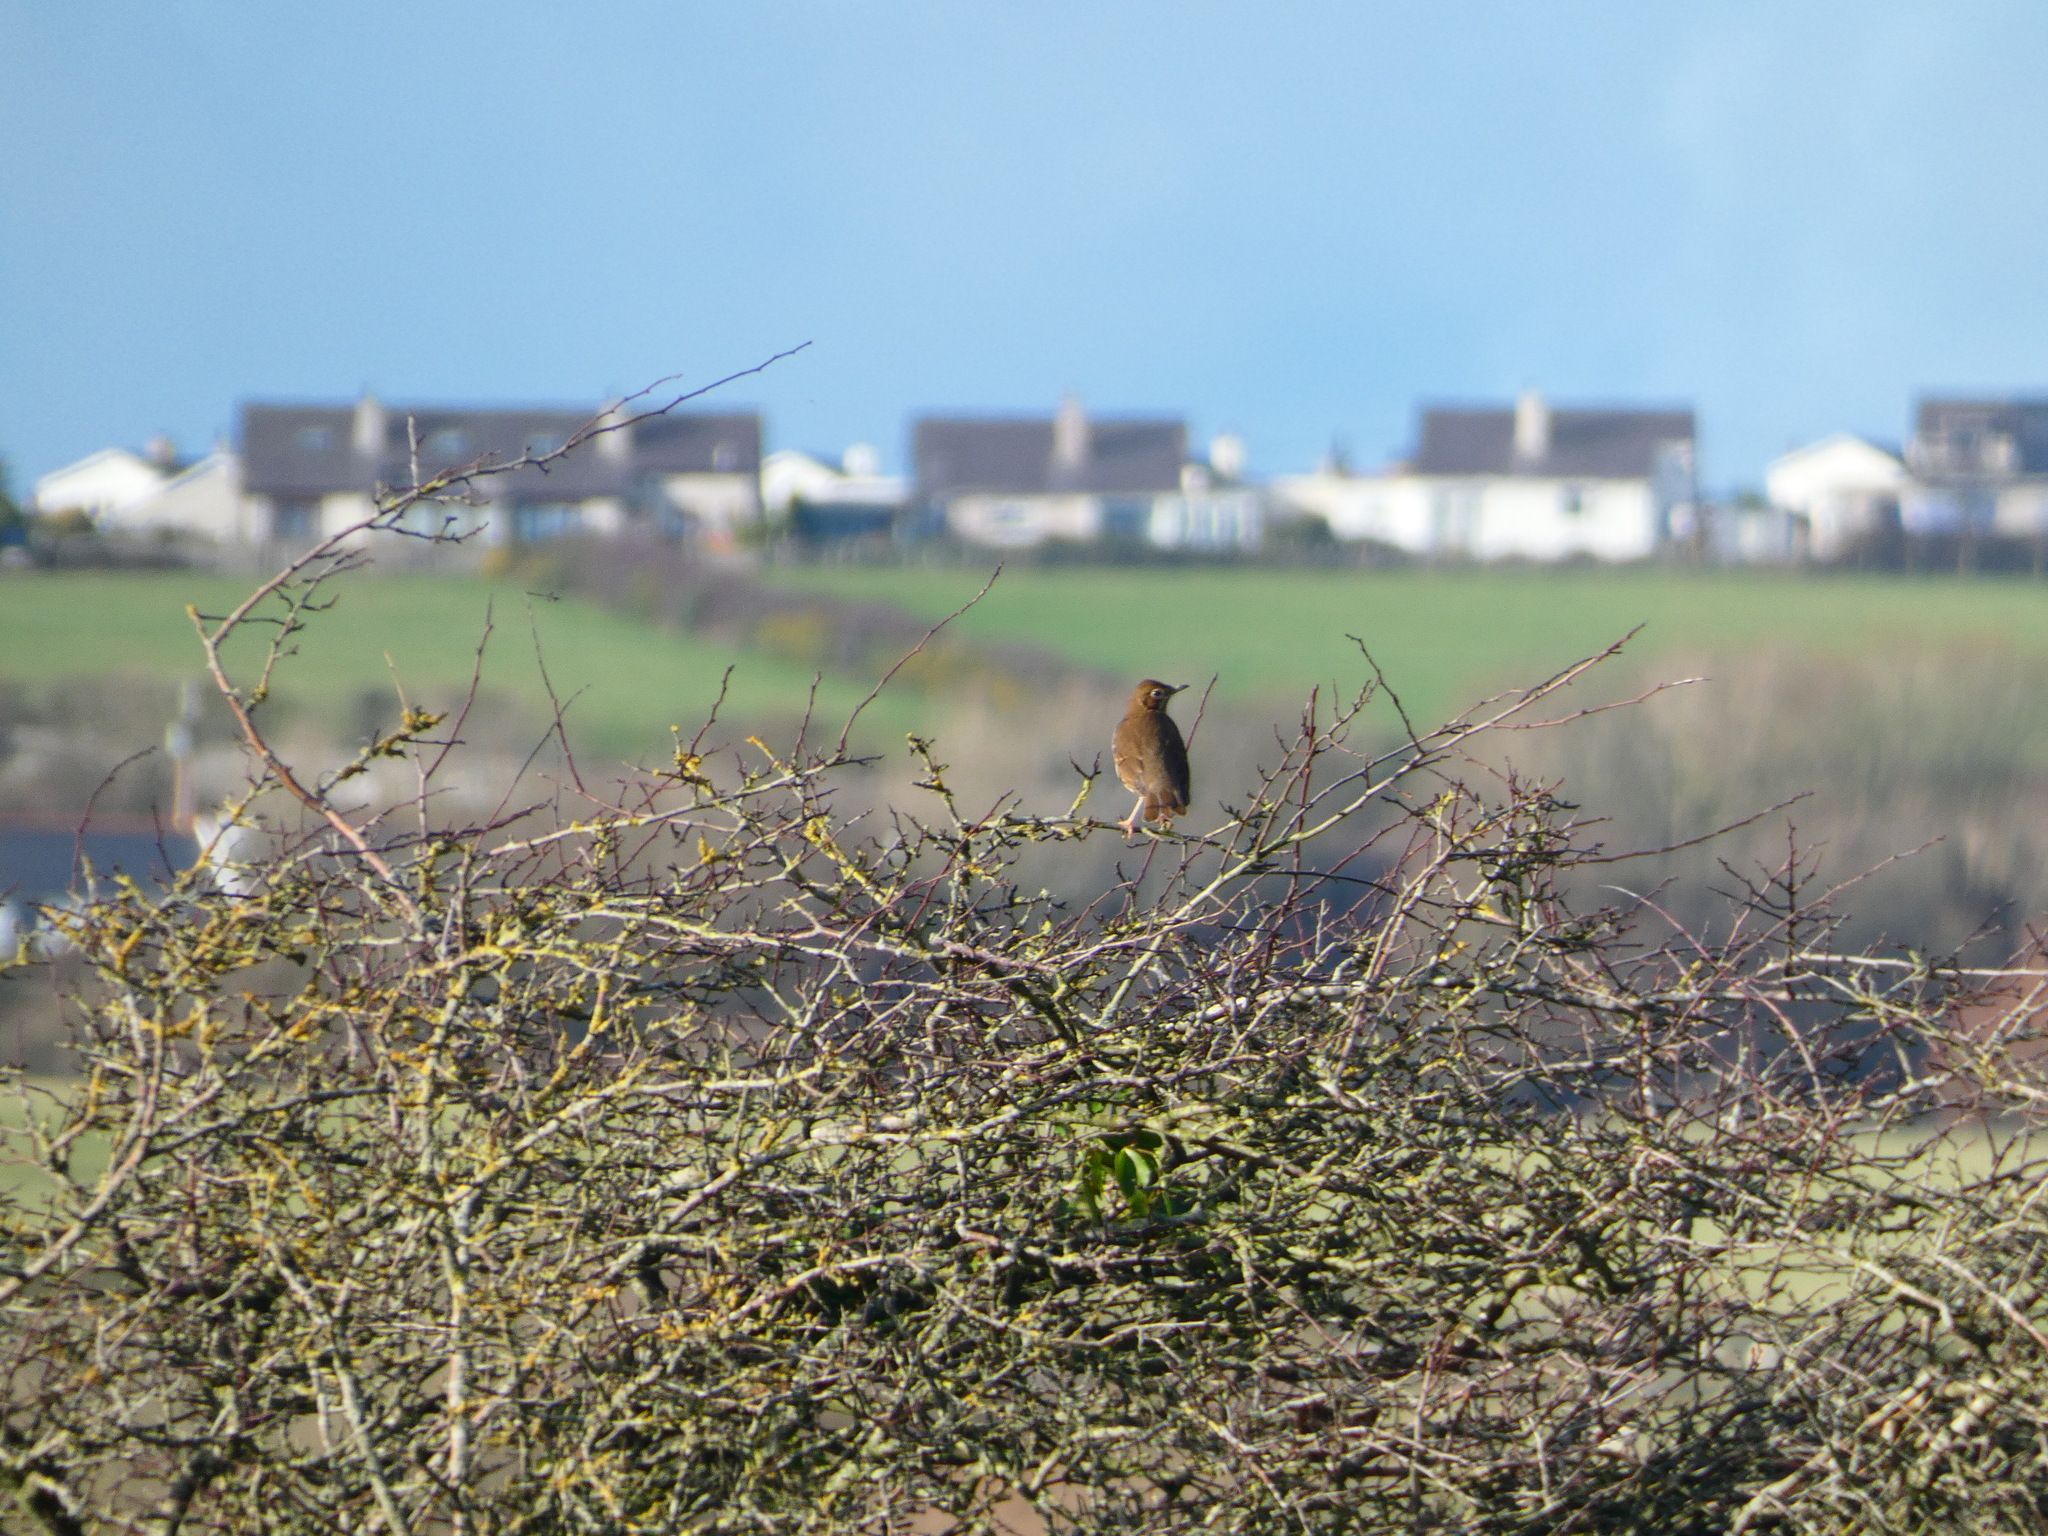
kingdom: Animalia
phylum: Chordata
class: Aves
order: Passeriformes
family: Turdidae
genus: Turdus
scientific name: Turdus philomelos
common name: Song thrush
